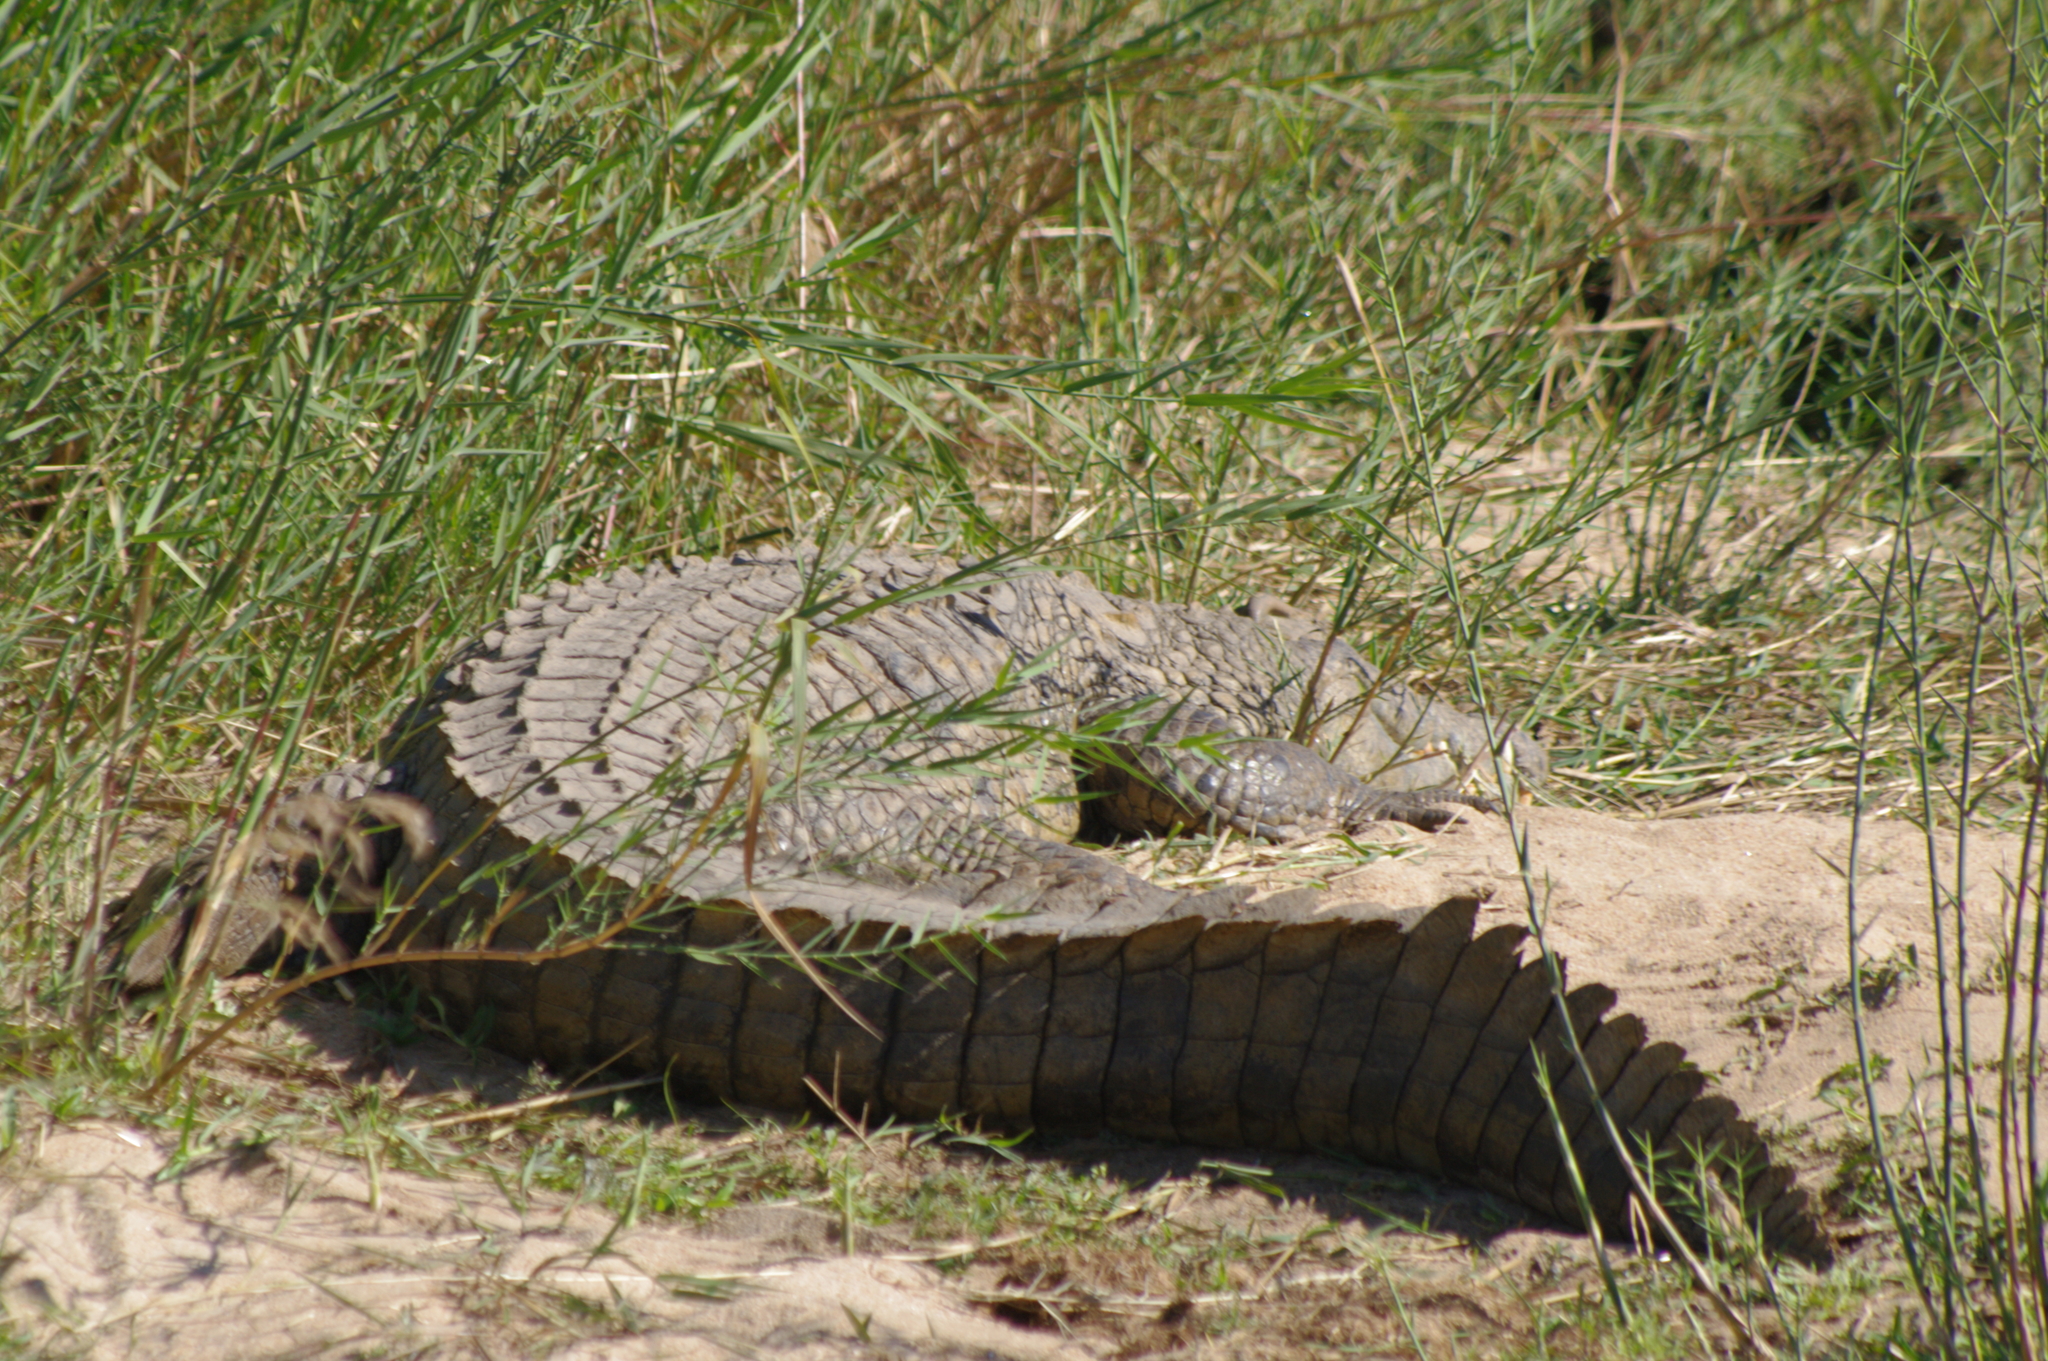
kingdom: Animalia
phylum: Chordata
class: Crocodylia
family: Crocodylidae
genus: Crocodylus
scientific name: Crocodylus niloticus
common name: Nile crocodile
